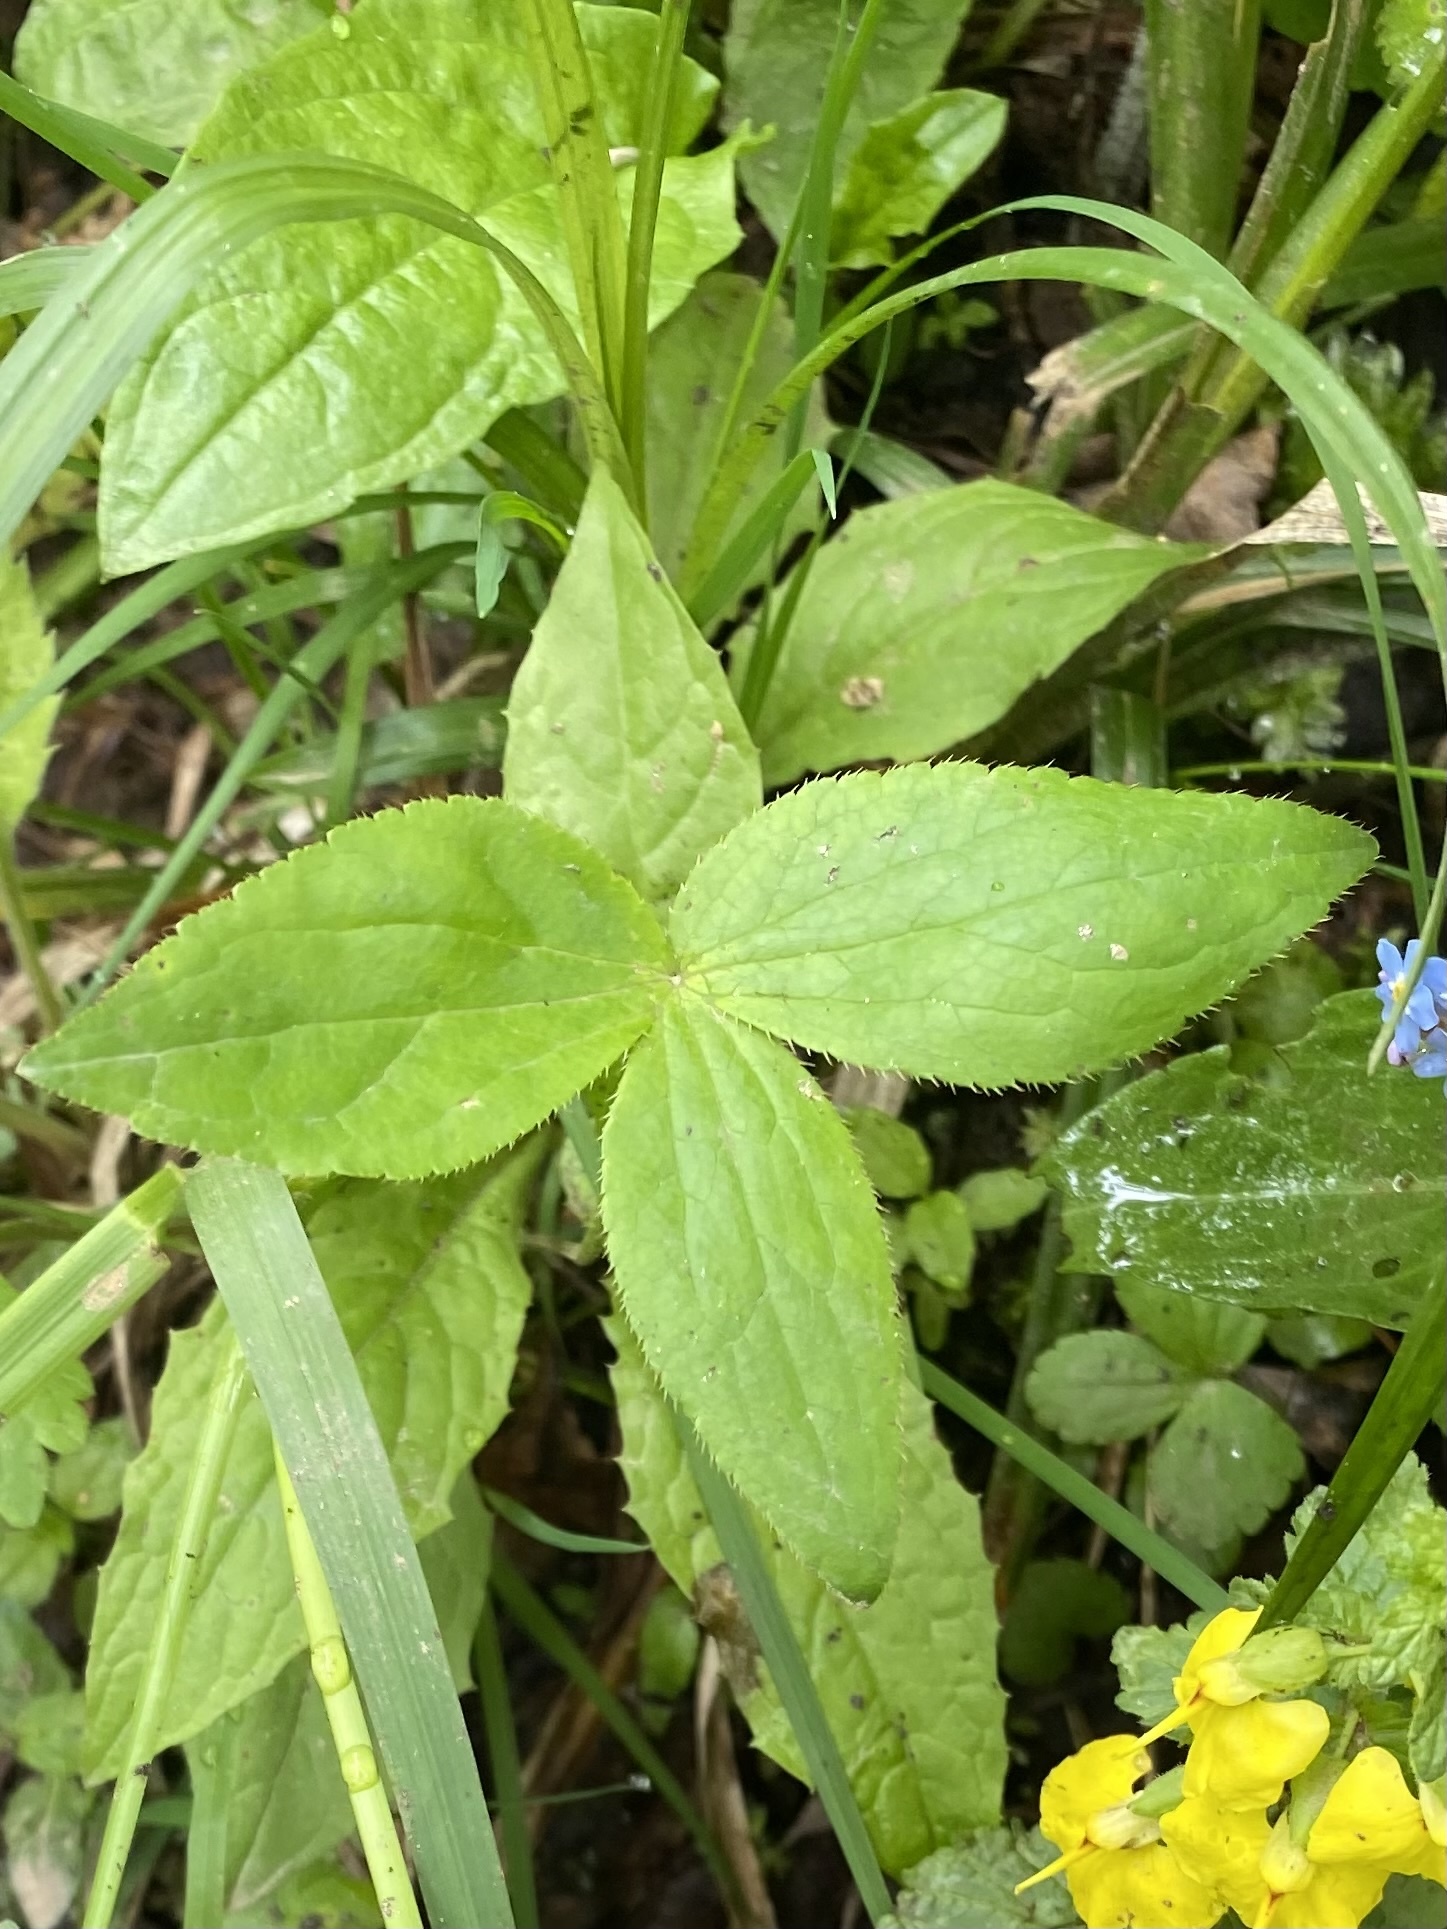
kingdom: Plantae
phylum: Tracheophyta
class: Magnoliopsida
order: Apiales
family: Apiaceae
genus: Astrantia
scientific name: Astrantia maxima
